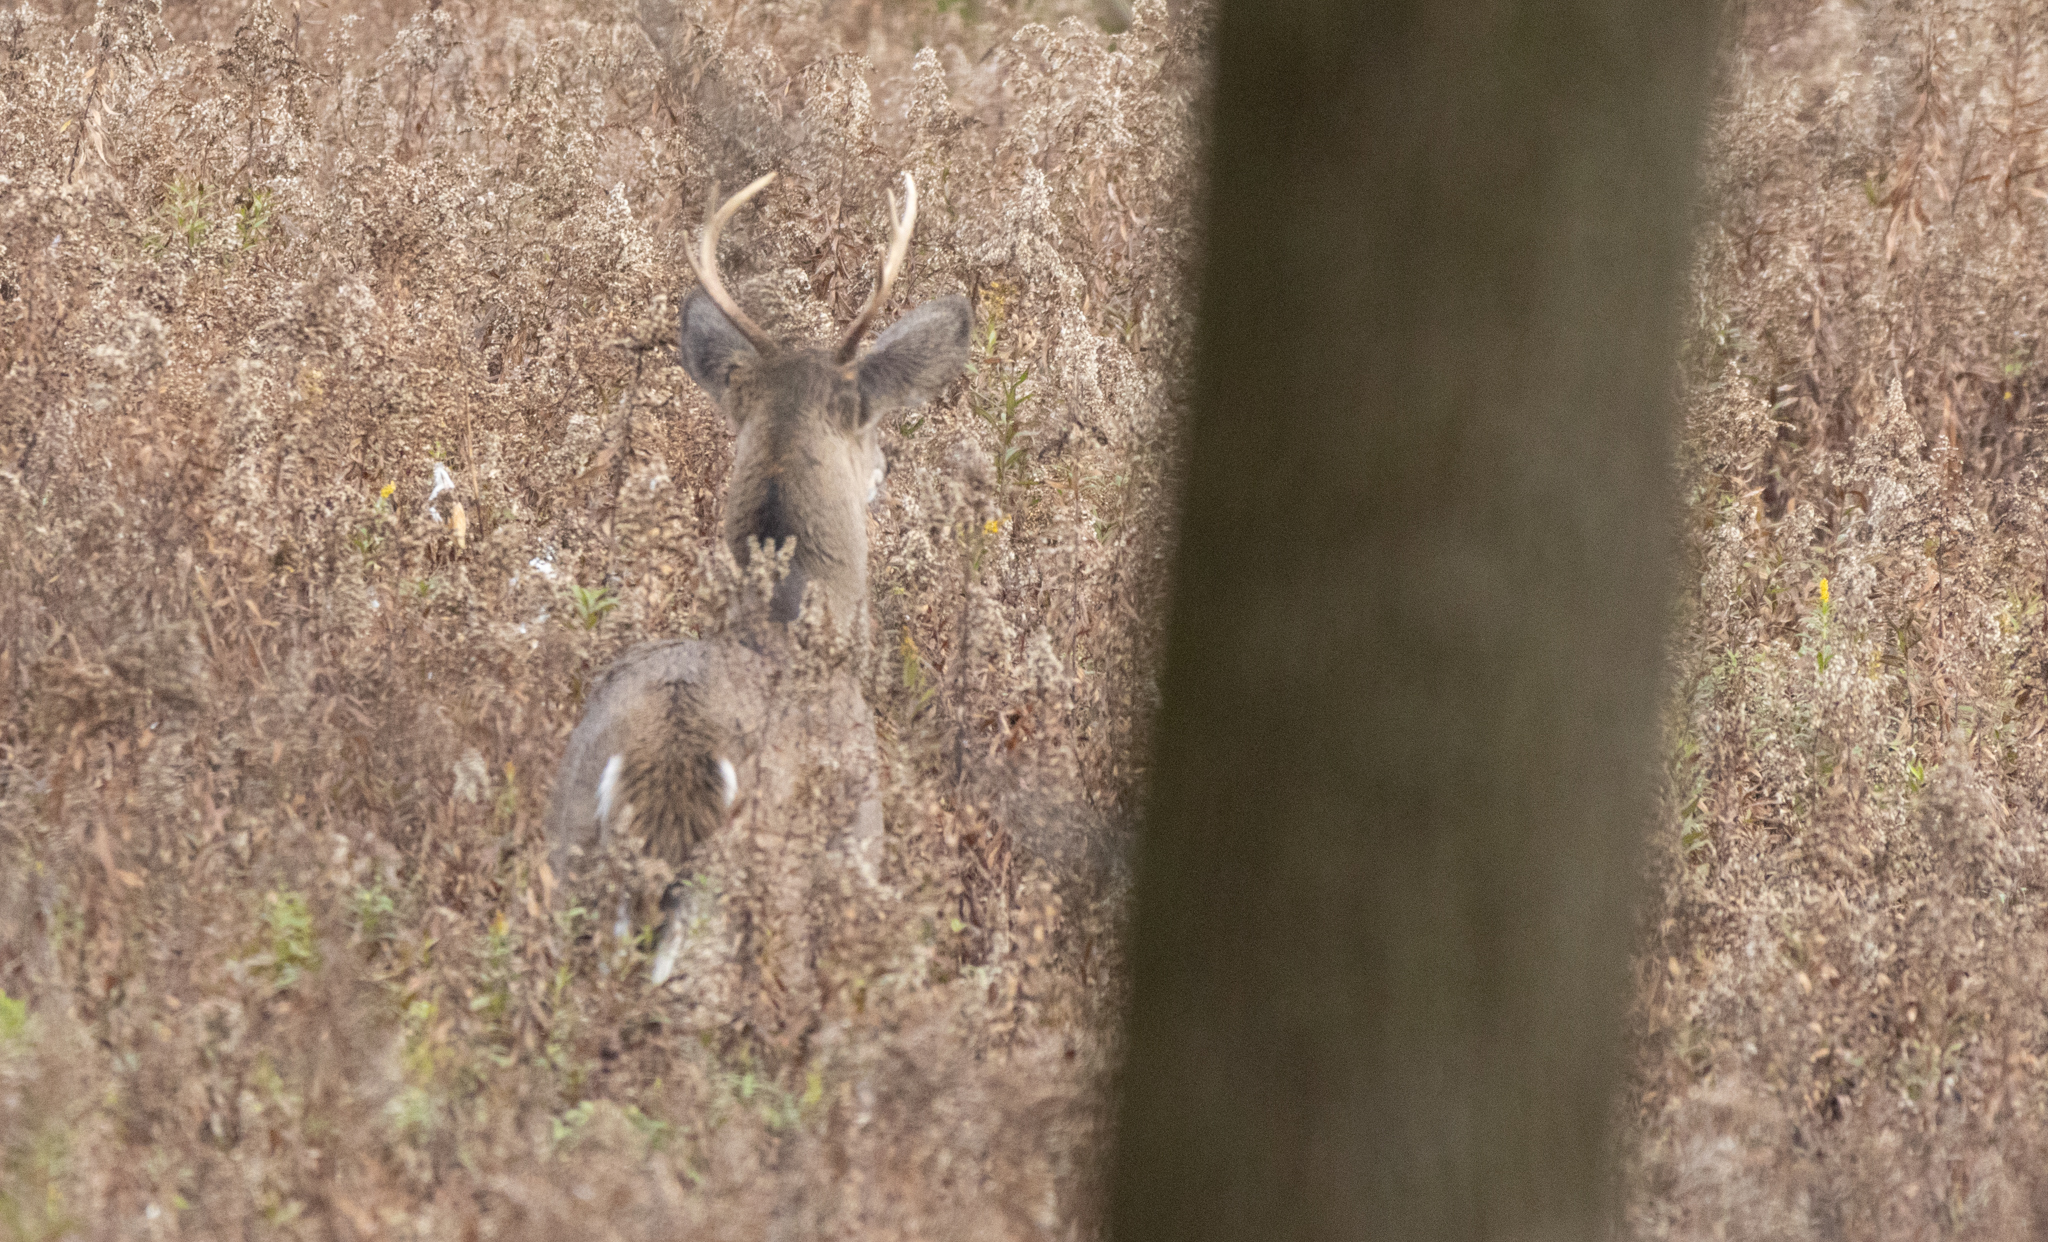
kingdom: Animalia
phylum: Chordata
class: Mammalia
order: Artiodactyla
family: Cervidae
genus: Odocoileus
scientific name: Odocoileus virginianus
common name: White-tailed deer
